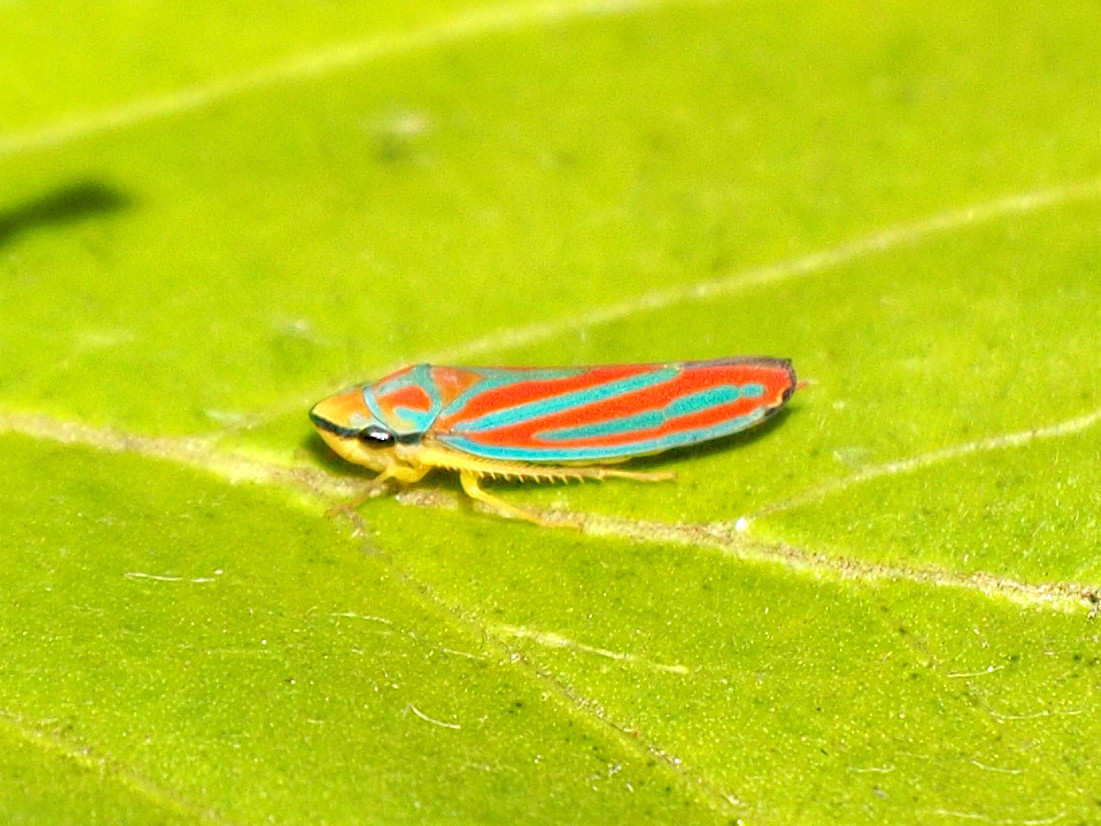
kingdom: Animalia
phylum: Arthropoda
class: Insecta
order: Hemiptera
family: Cicadellidae
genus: Graphocephala
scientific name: Graphocephala coccinea
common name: Candy-striped leafhopper
